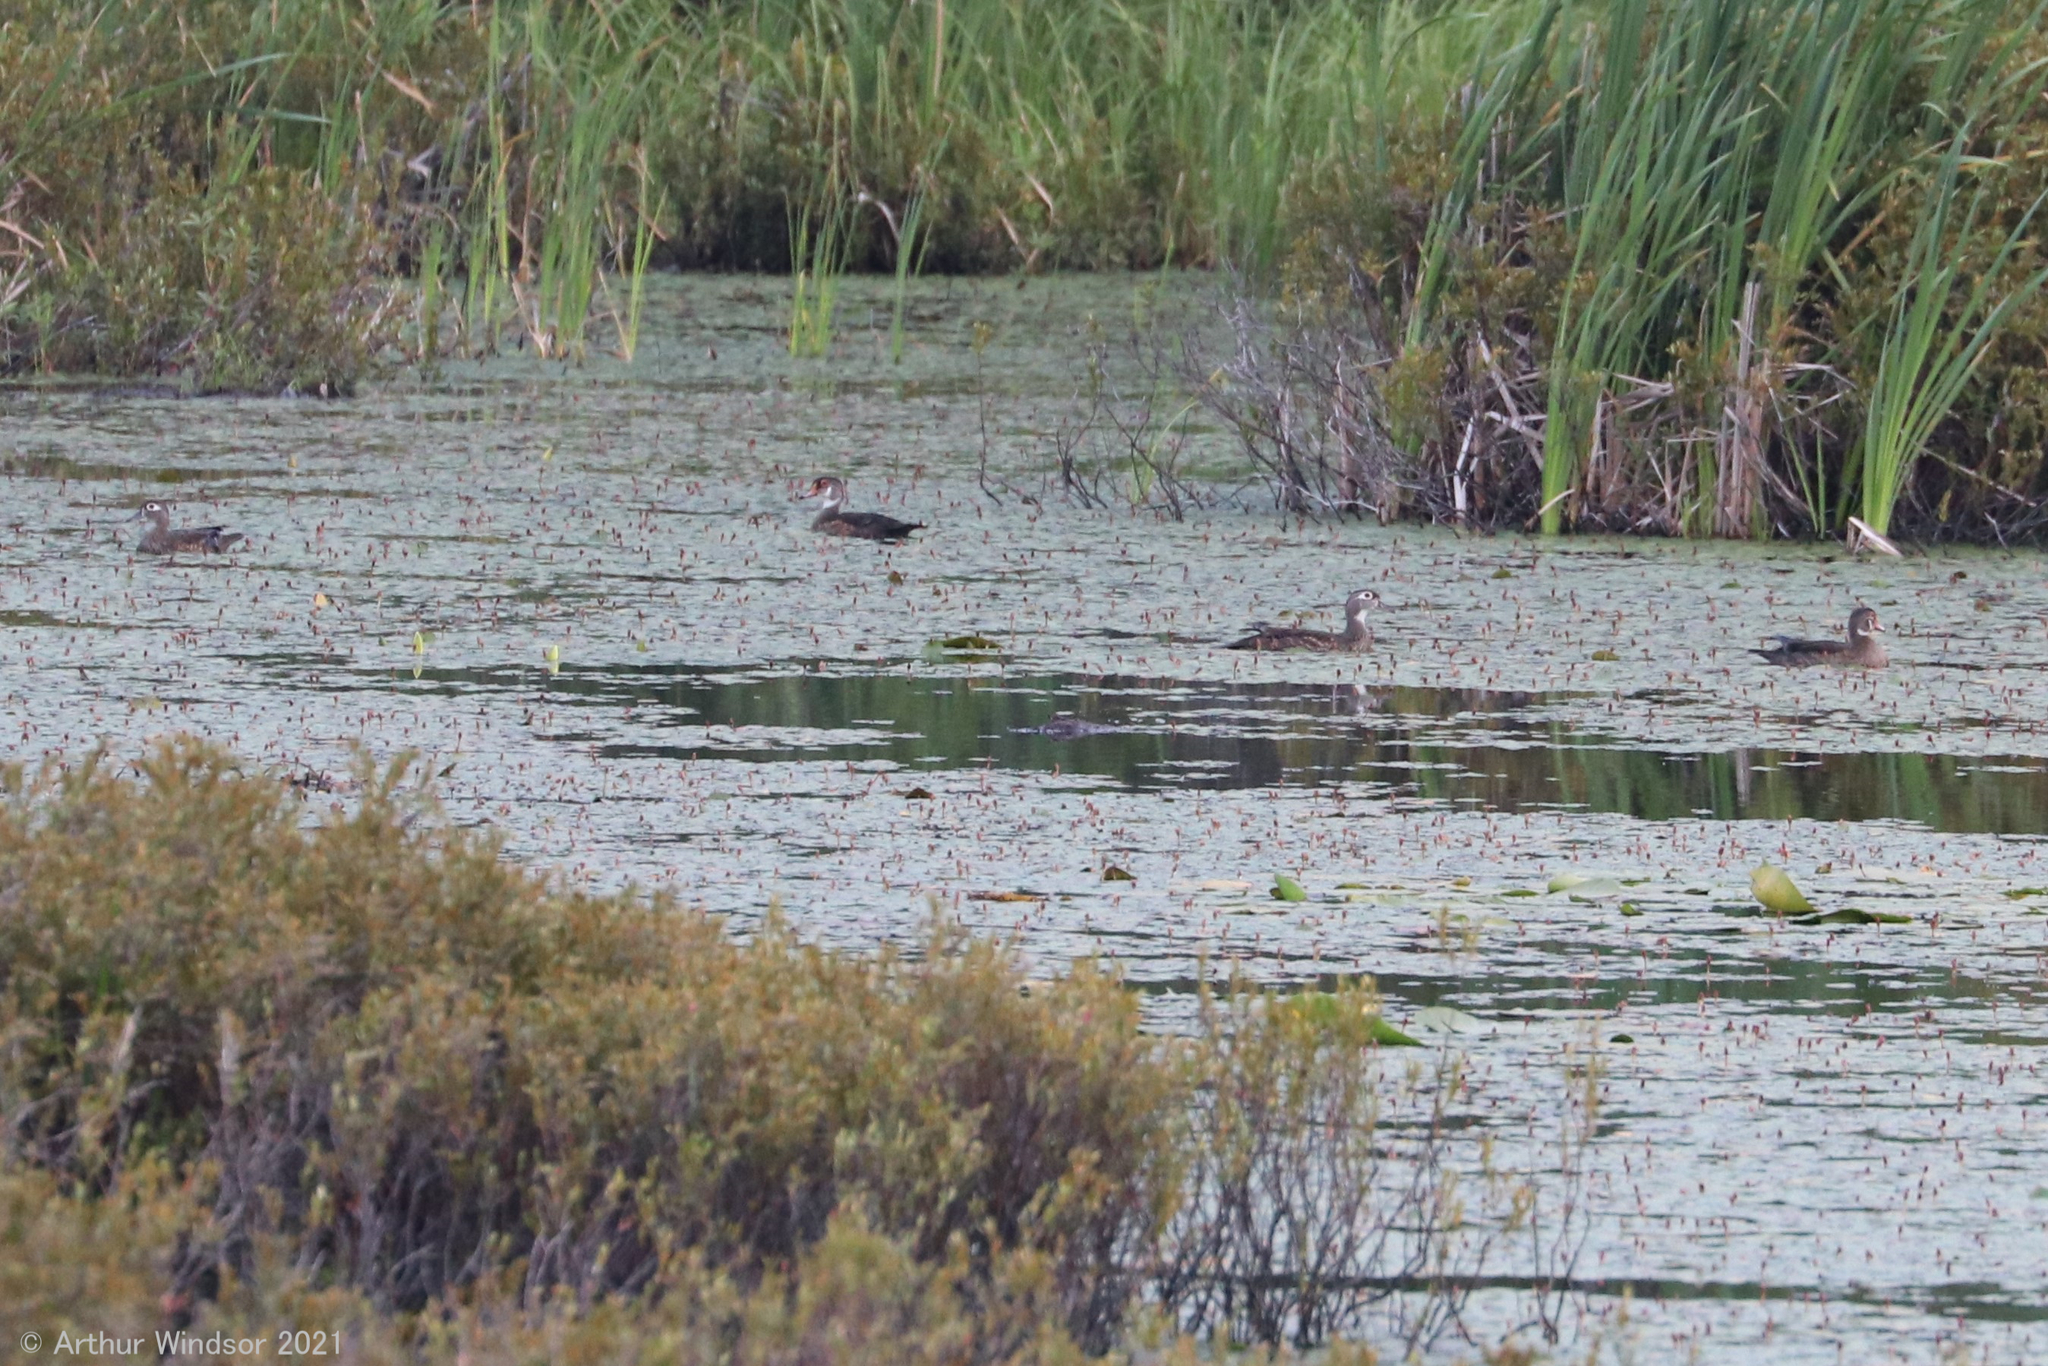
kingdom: Animalia
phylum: Chordata
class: Aves
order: Anseriformes
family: Anatidae
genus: Aix
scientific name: Aix sponsa
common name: Wood duck
